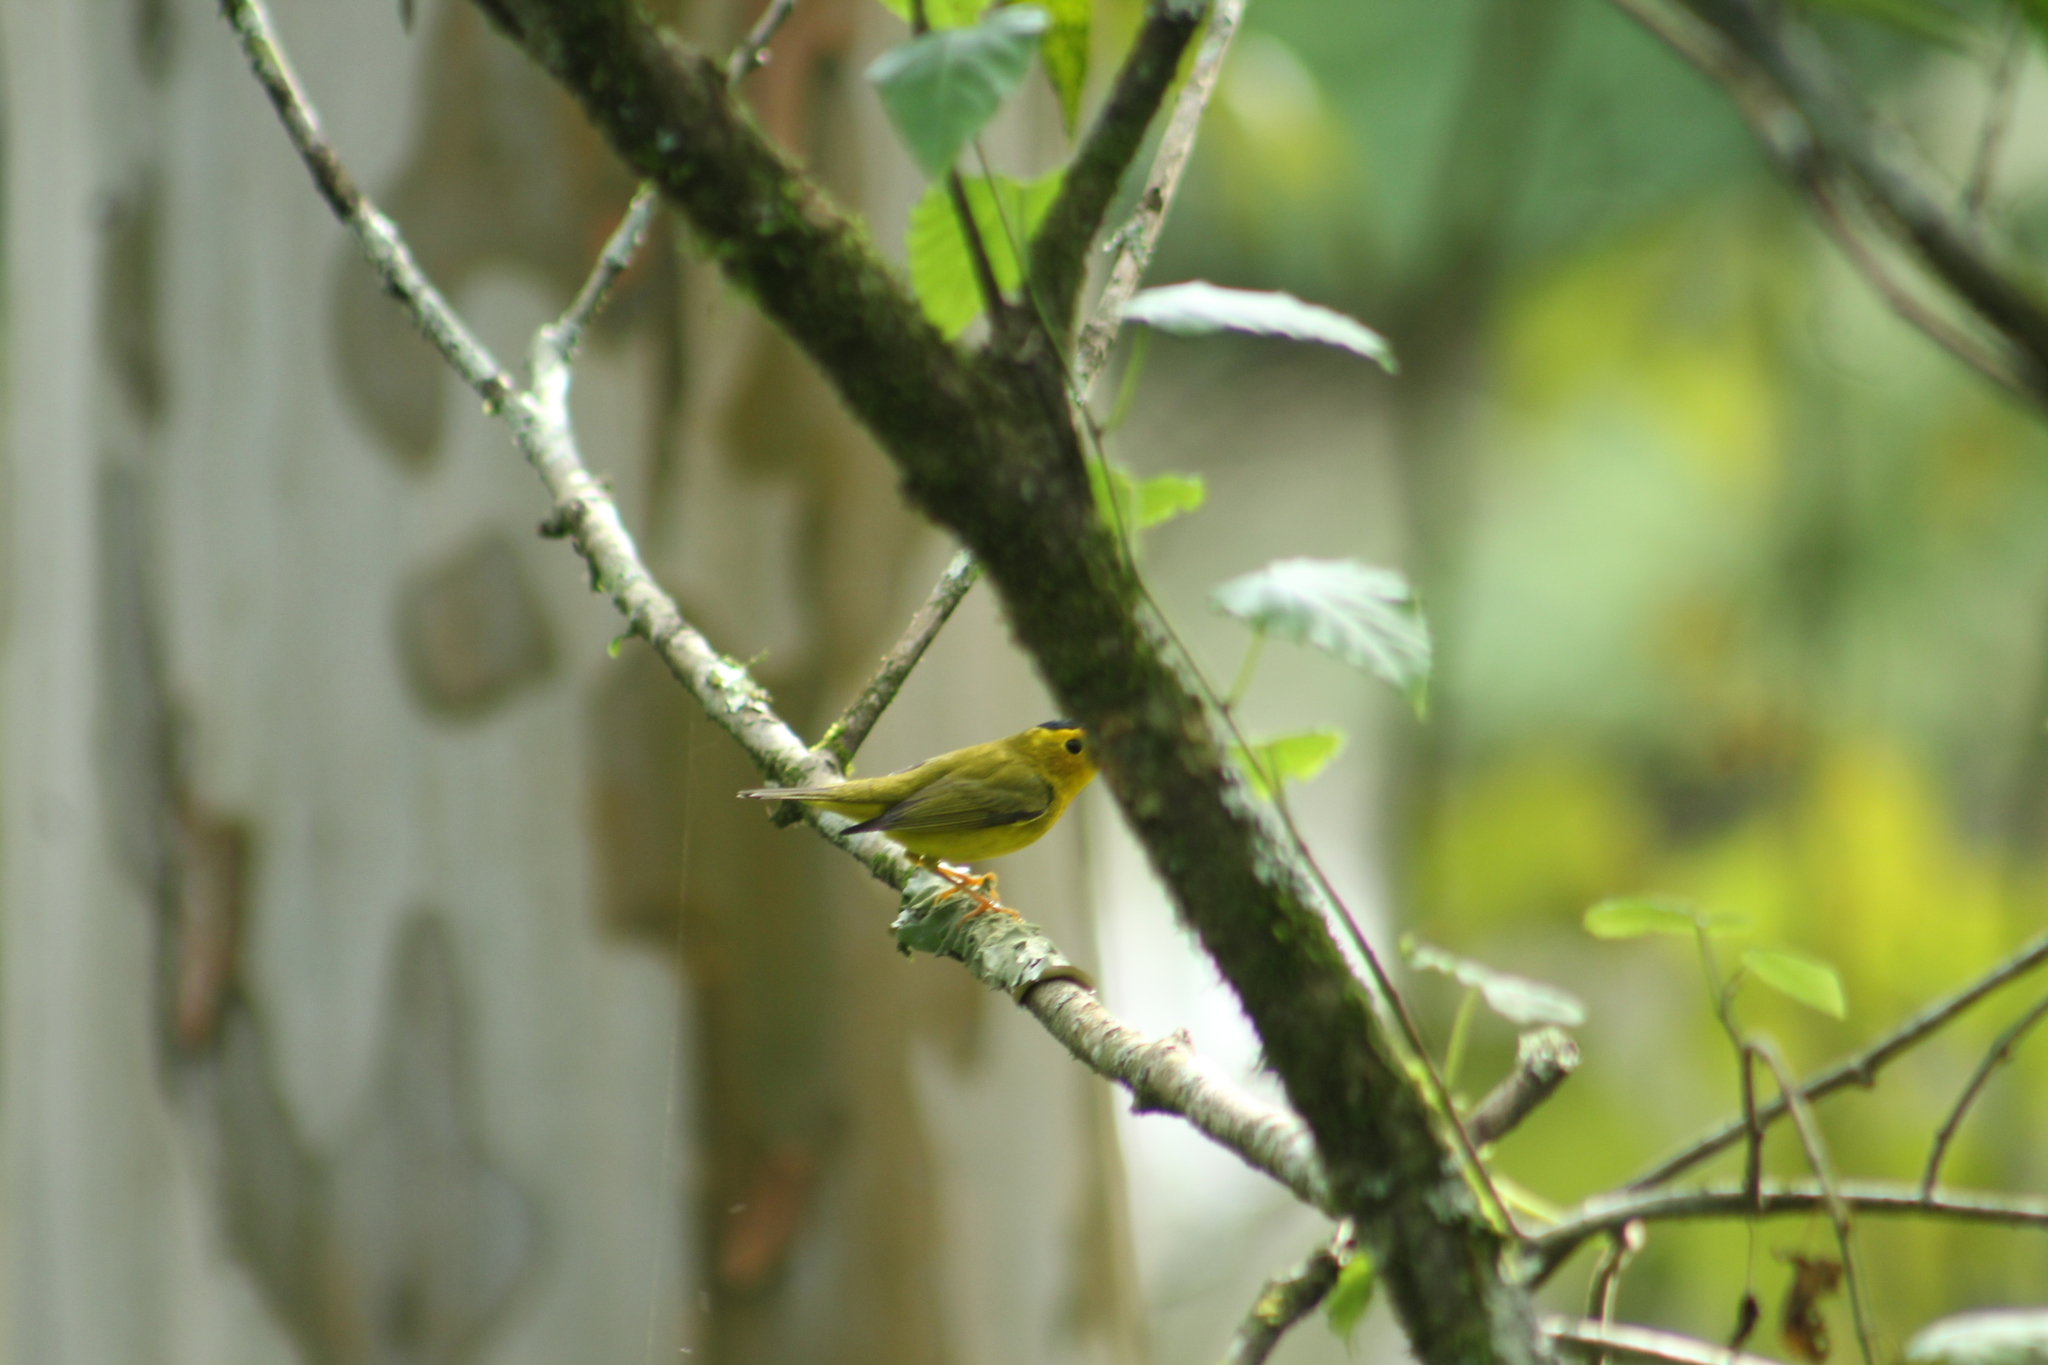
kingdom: Animalia
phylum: Chordata
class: Aves
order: Passeriformes
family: Parulidae
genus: Cardellina
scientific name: Cardellina pusilla
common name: Wilson's warbler
